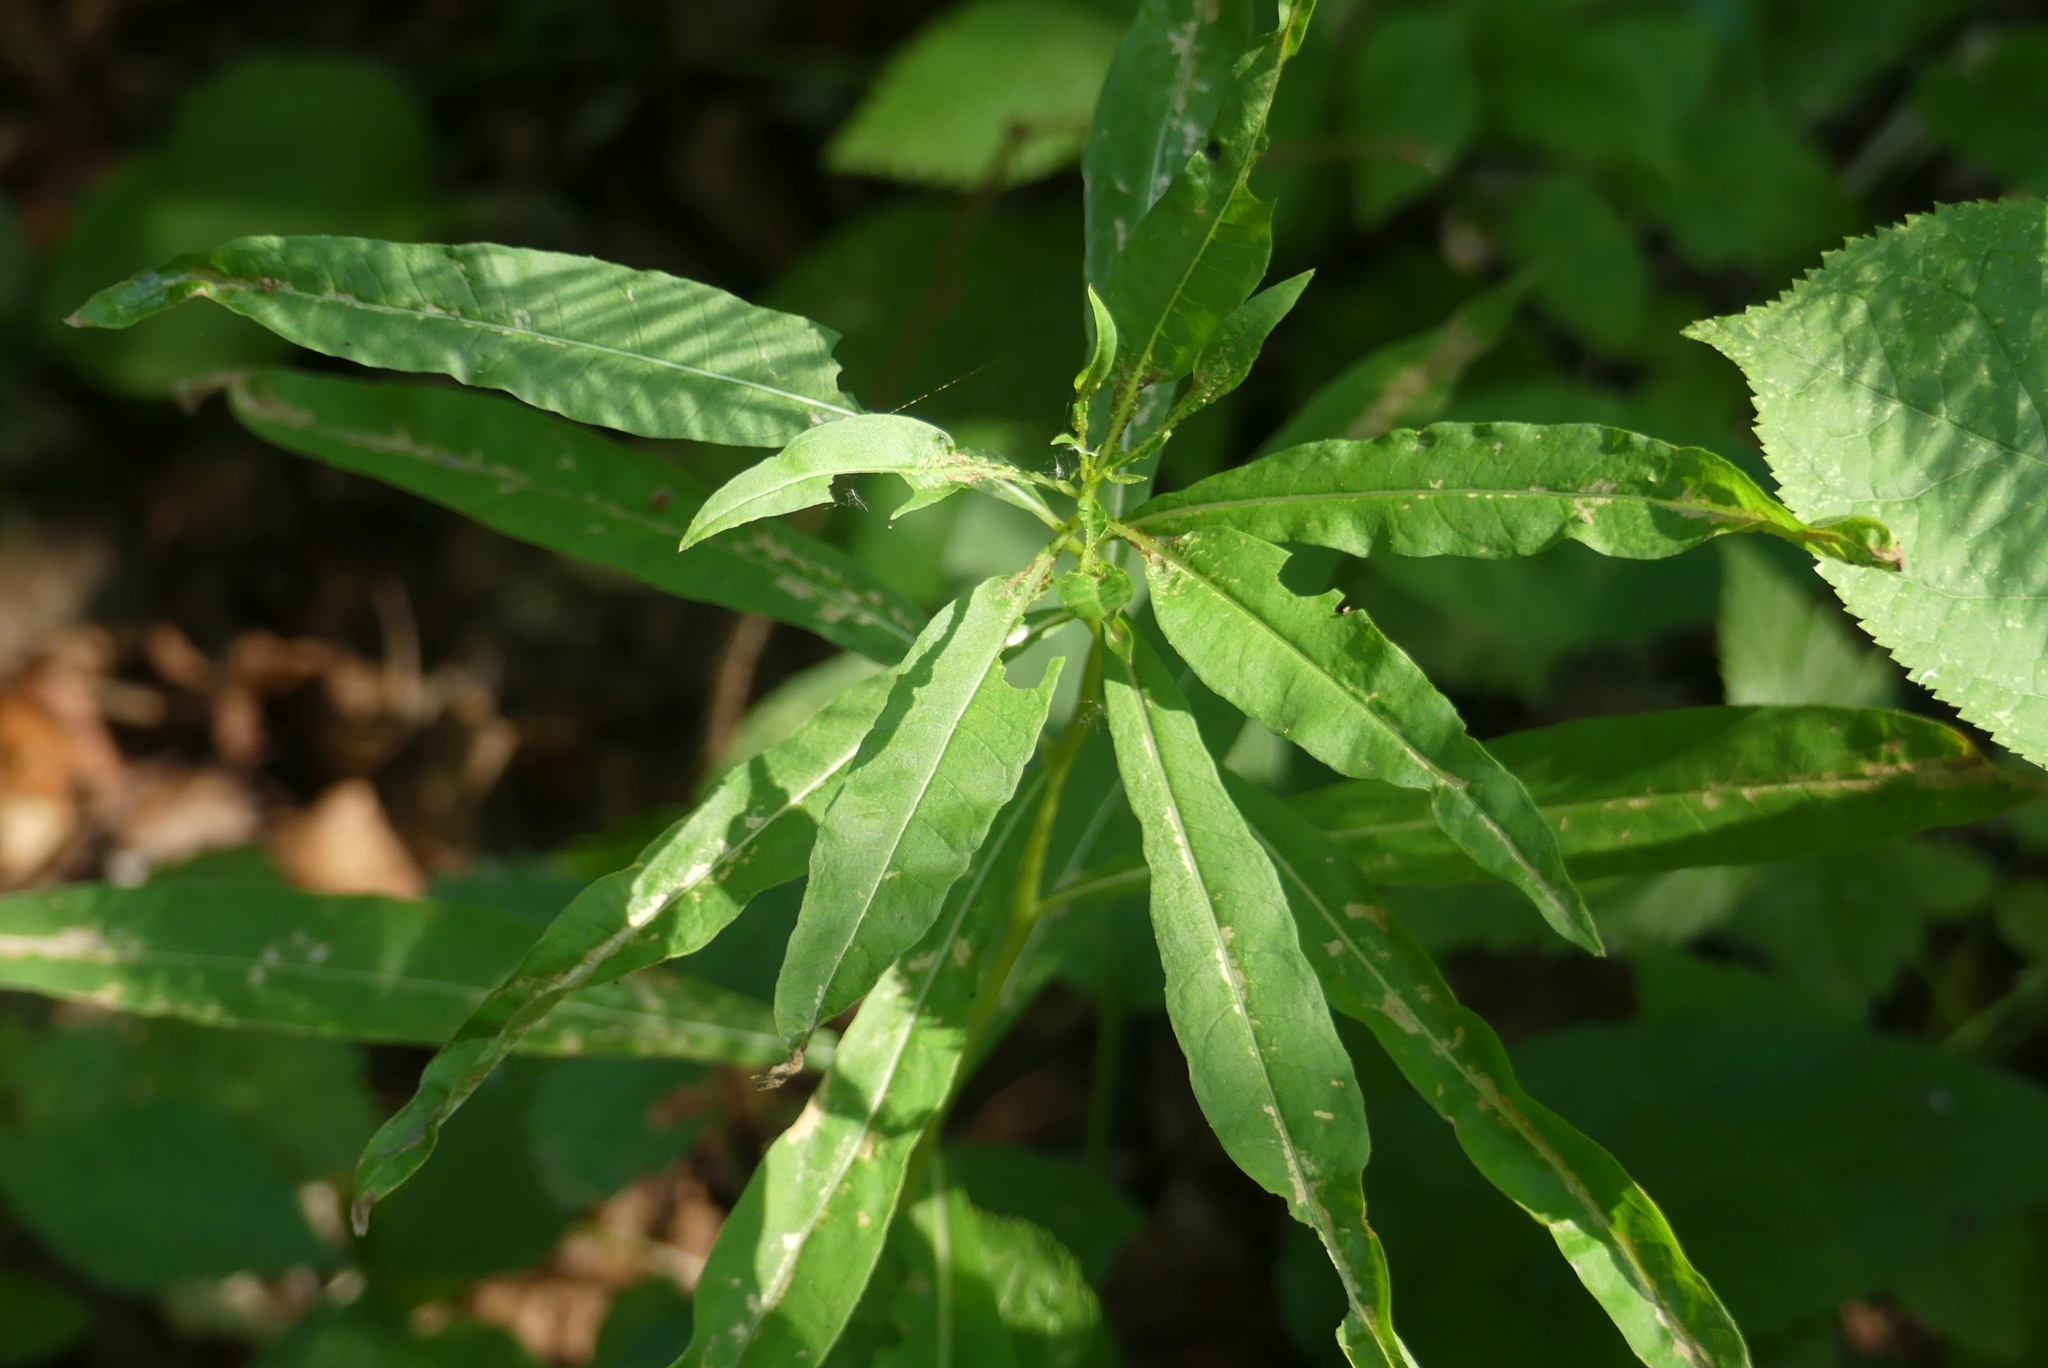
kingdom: Plantae
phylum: Tracheophyta
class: Magnoliopsida
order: Myrtales
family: Onagraceae
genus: Chamaenerion
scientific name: Chamaenerion angustifolium
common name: Fireweed
